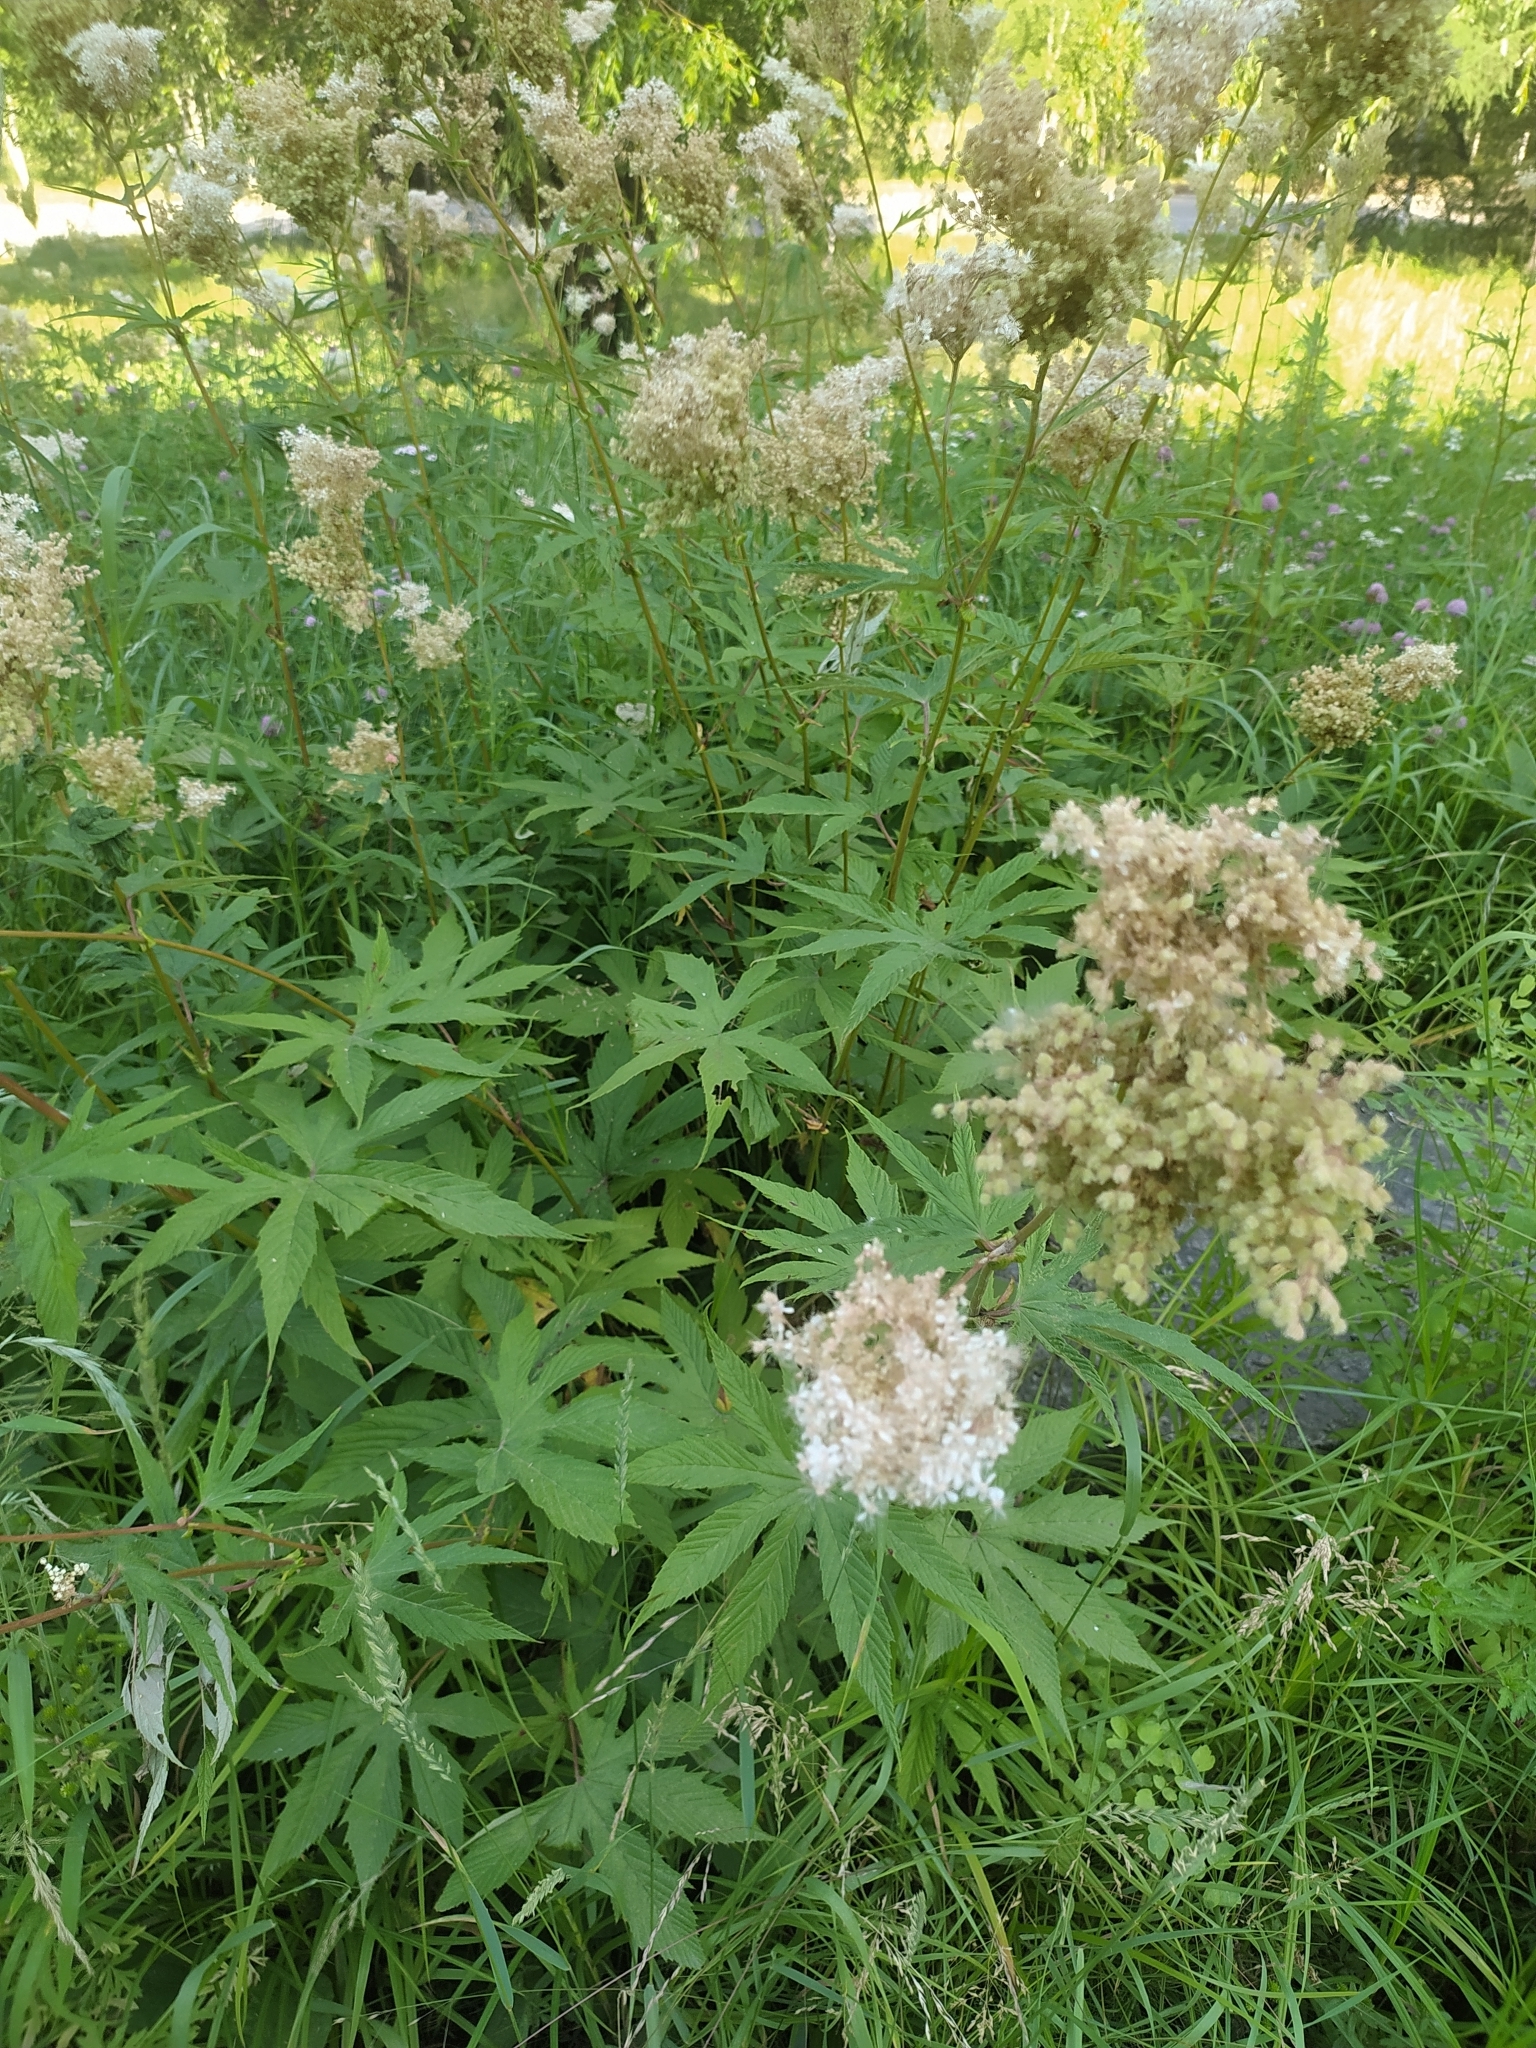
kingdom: Plantae
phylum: Tracheophyta
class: Magnoliopsida
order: Rosales
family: Rosaceae
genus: Filipendula
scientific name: Filipendula digitata
